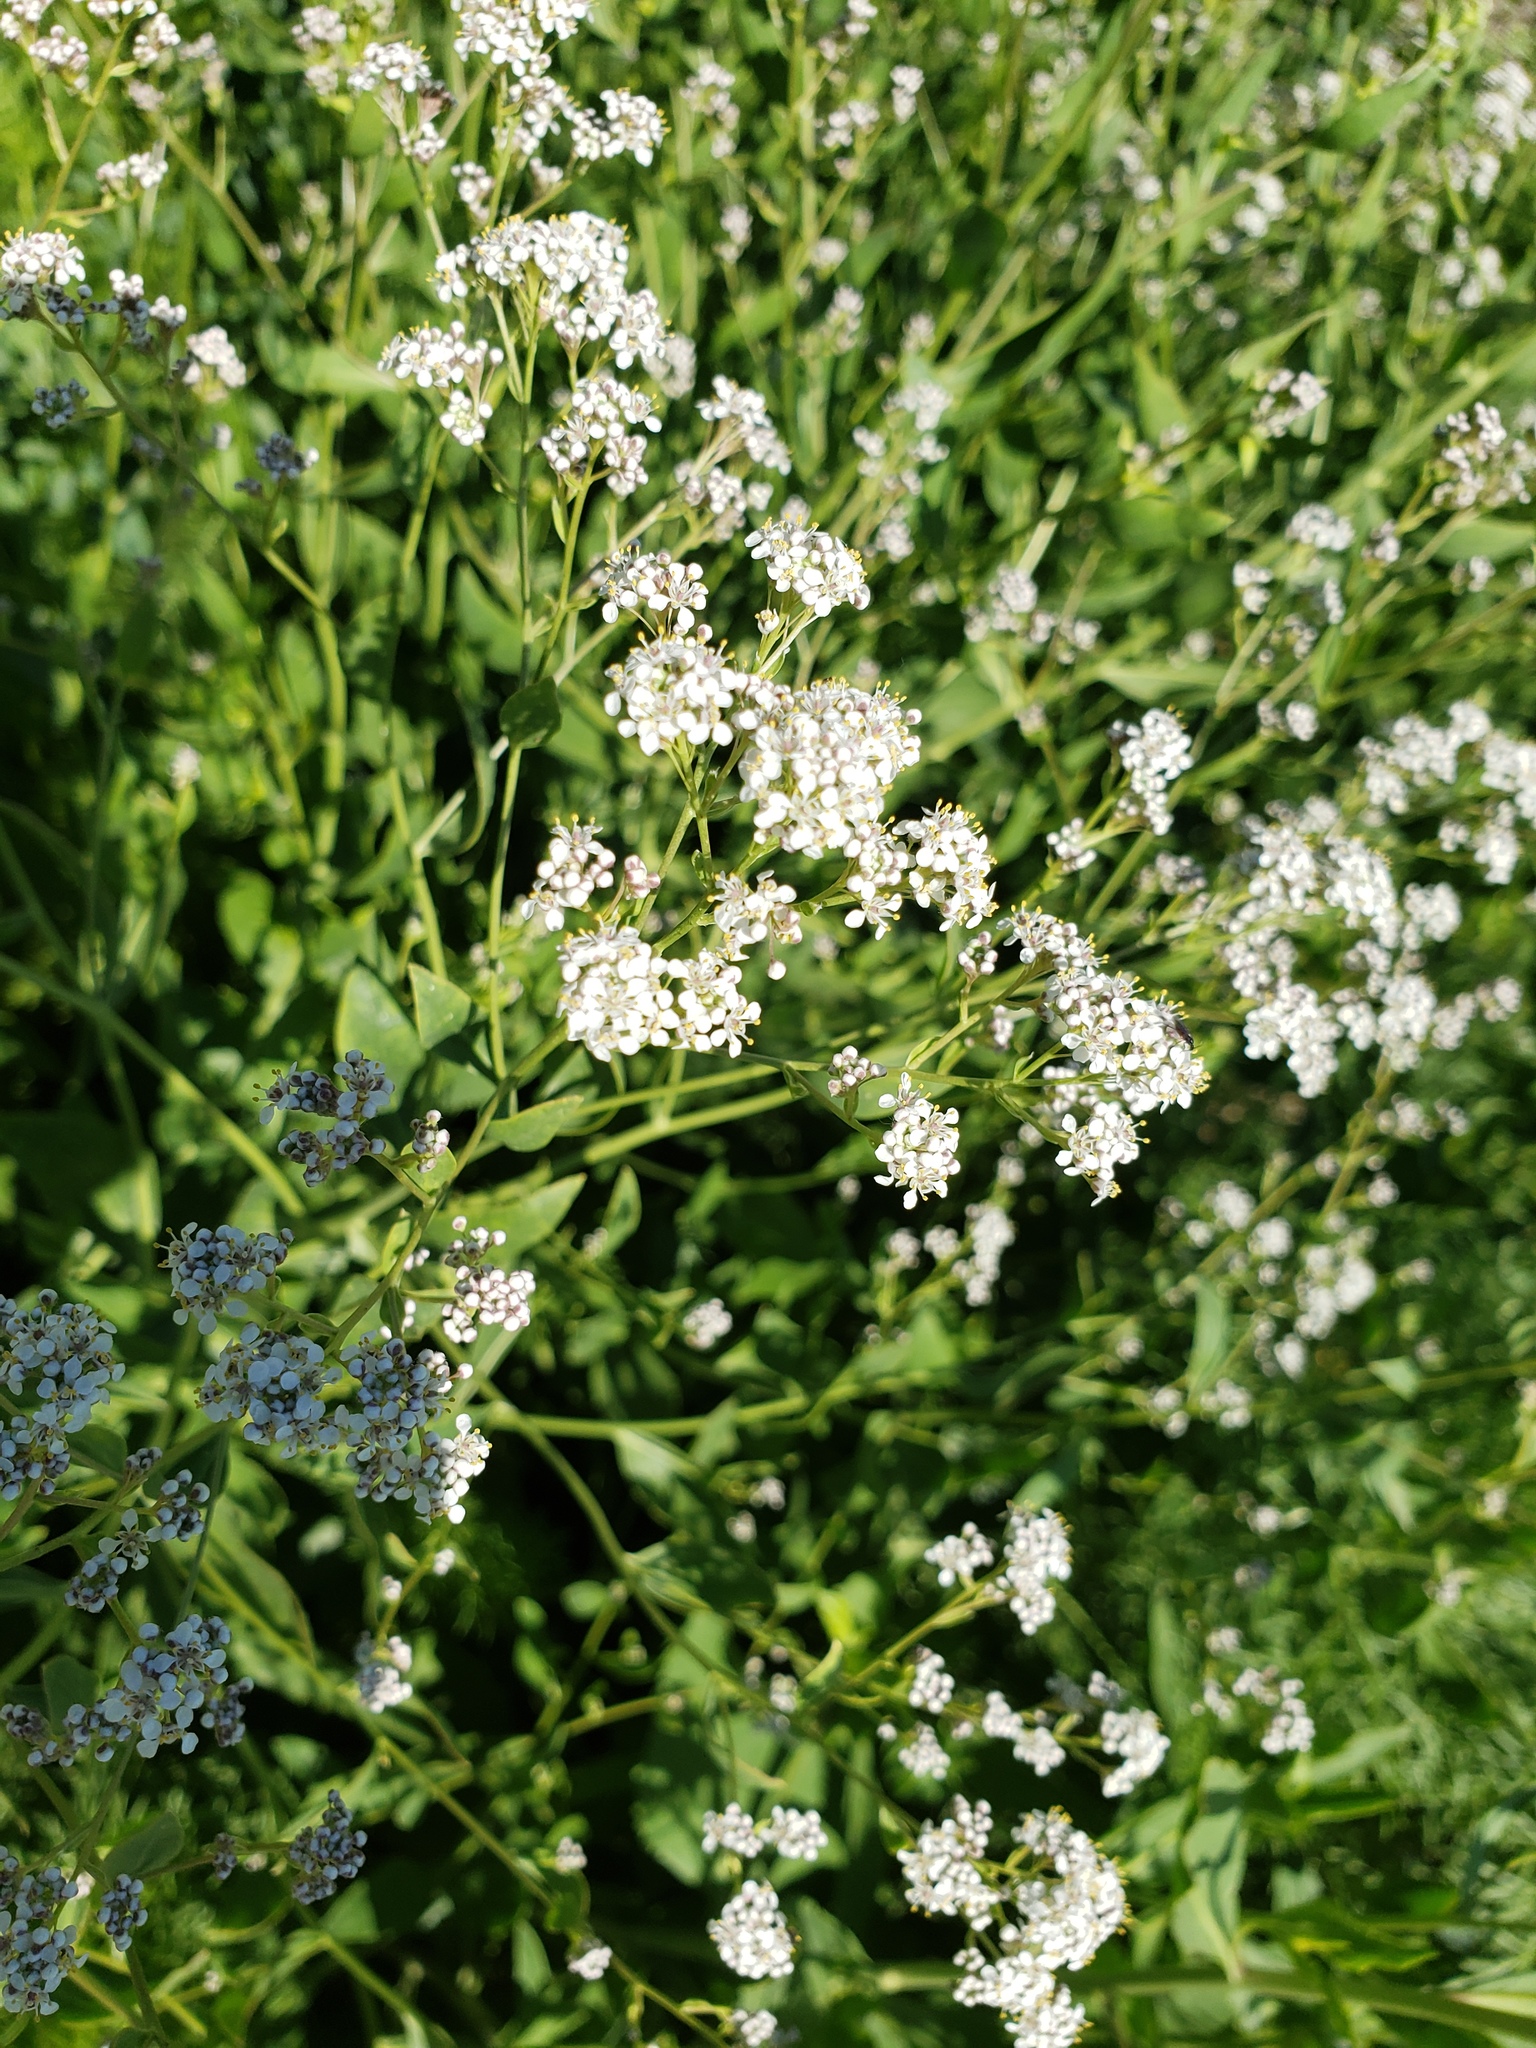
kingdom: Plantae
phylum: Tracheophyta
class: Magnoliopsida
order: Brassicales
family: Brassicaceae
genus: Lepidium
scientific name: Lepidium latifolium
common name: Dittander
